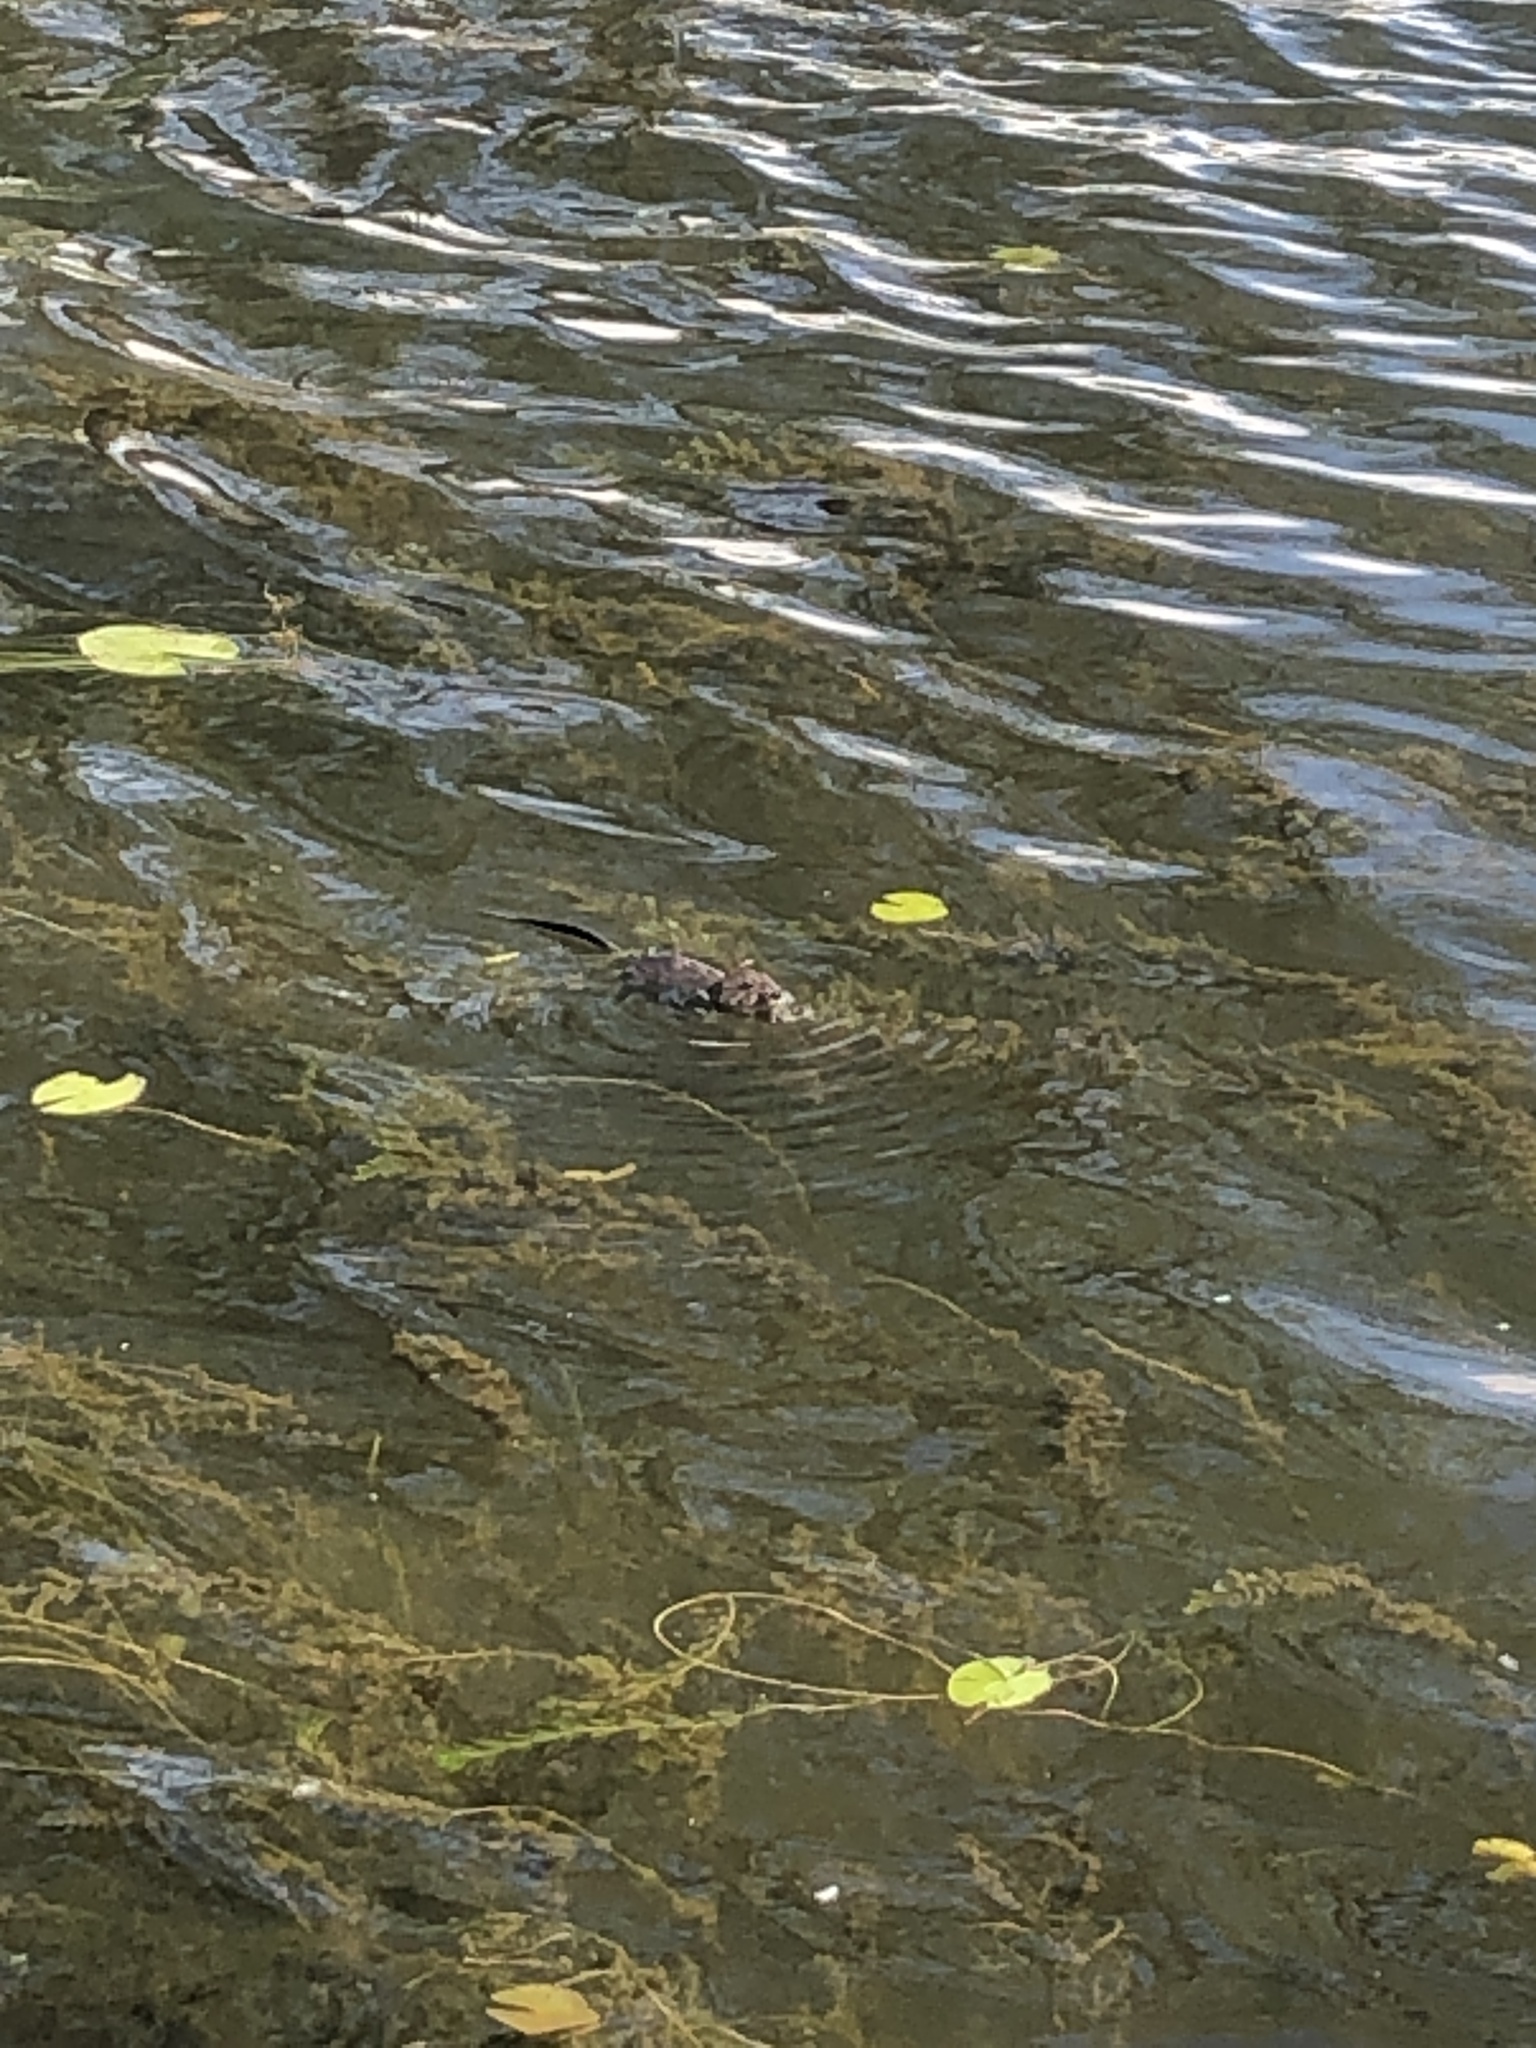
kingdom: Animalia
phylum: Chordata
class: Mammalia
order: Rodentia
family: Cricetidae
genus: Ondatra
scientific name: Ondatra zibethicus
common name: Muskrat
